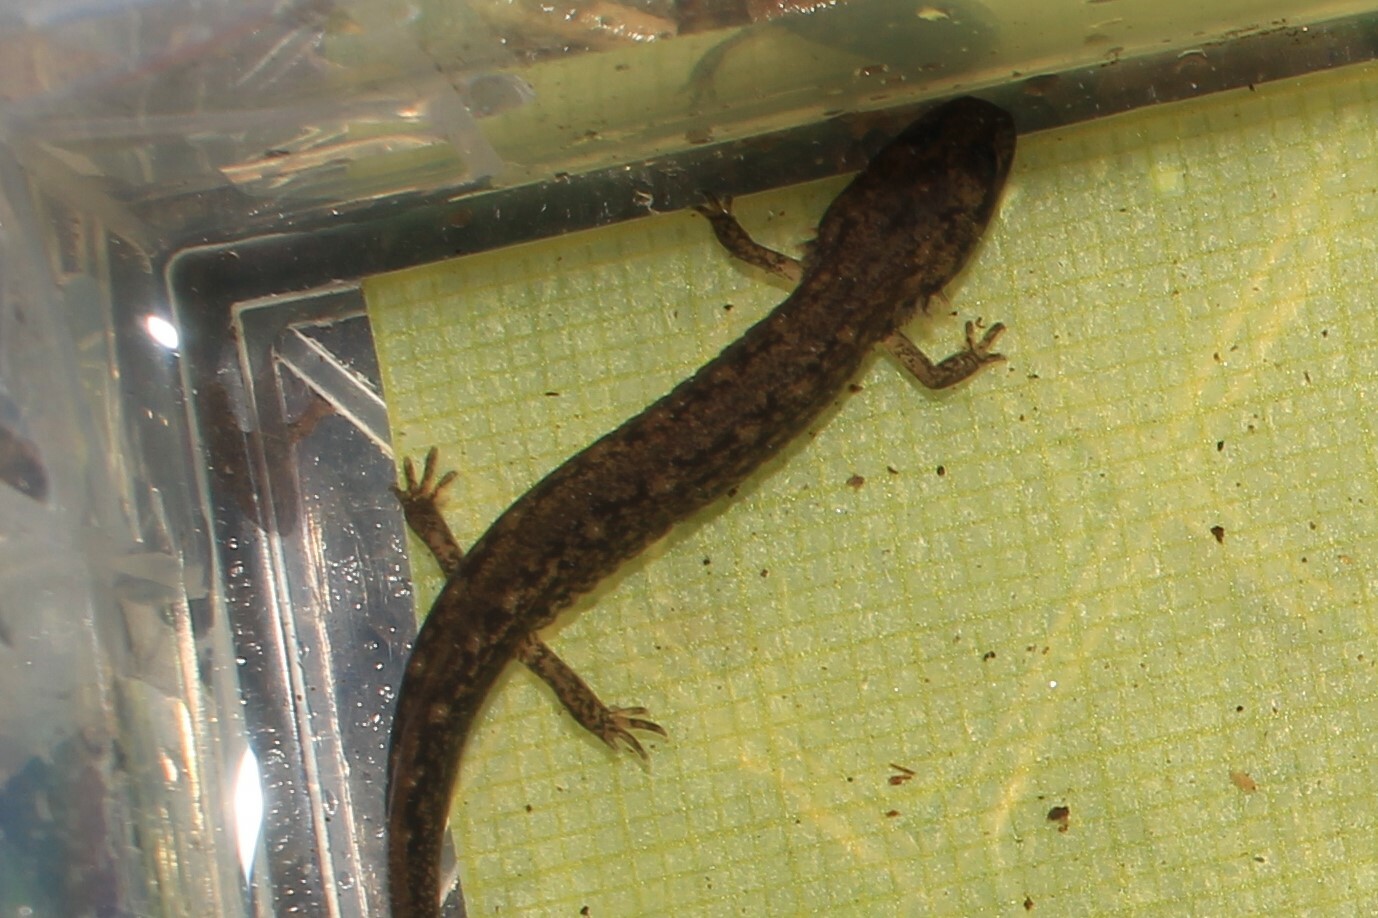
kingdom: Animalia
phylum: Chordata
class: Amphibia
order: Caudata
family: Plethodontidae
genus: Eurycea
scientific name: Eurycea bislineata
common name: Northern two-lined salamander
